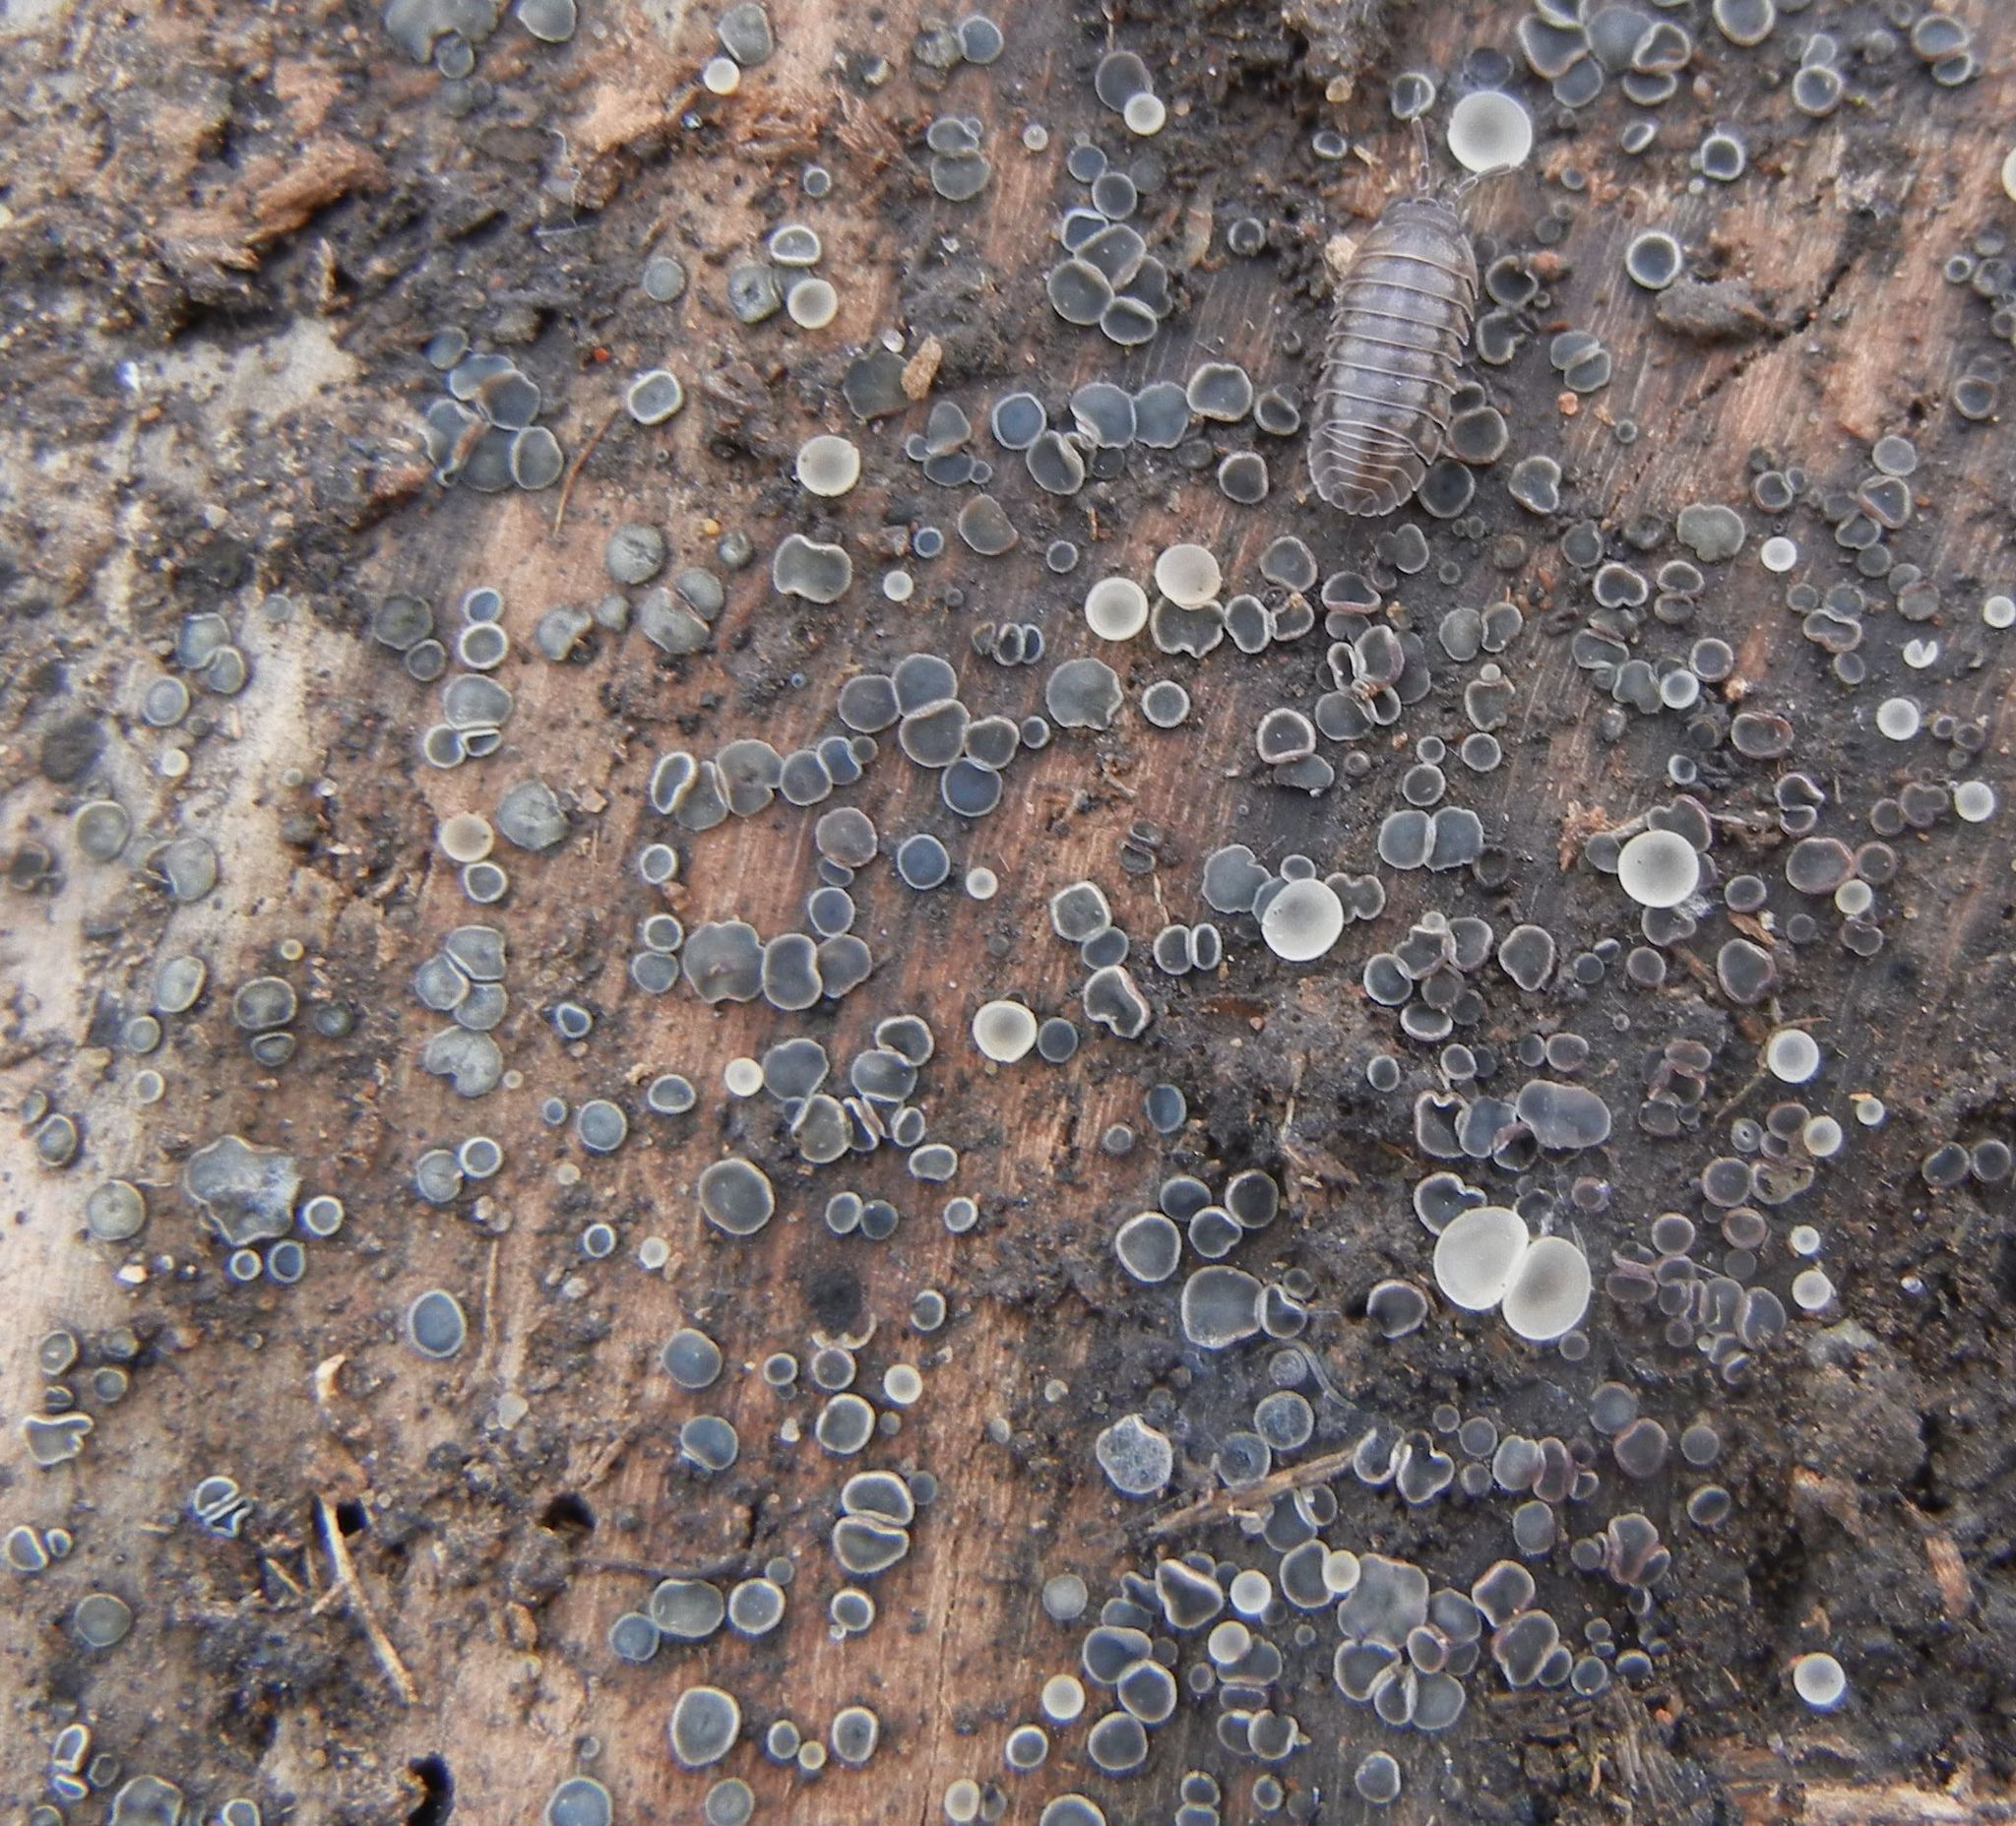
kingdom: Fungi
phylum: Ascomycota
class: Leotiomycetes
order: Helotiales
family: Mollisiaceae
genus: Mollisia
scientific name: Mollisia
